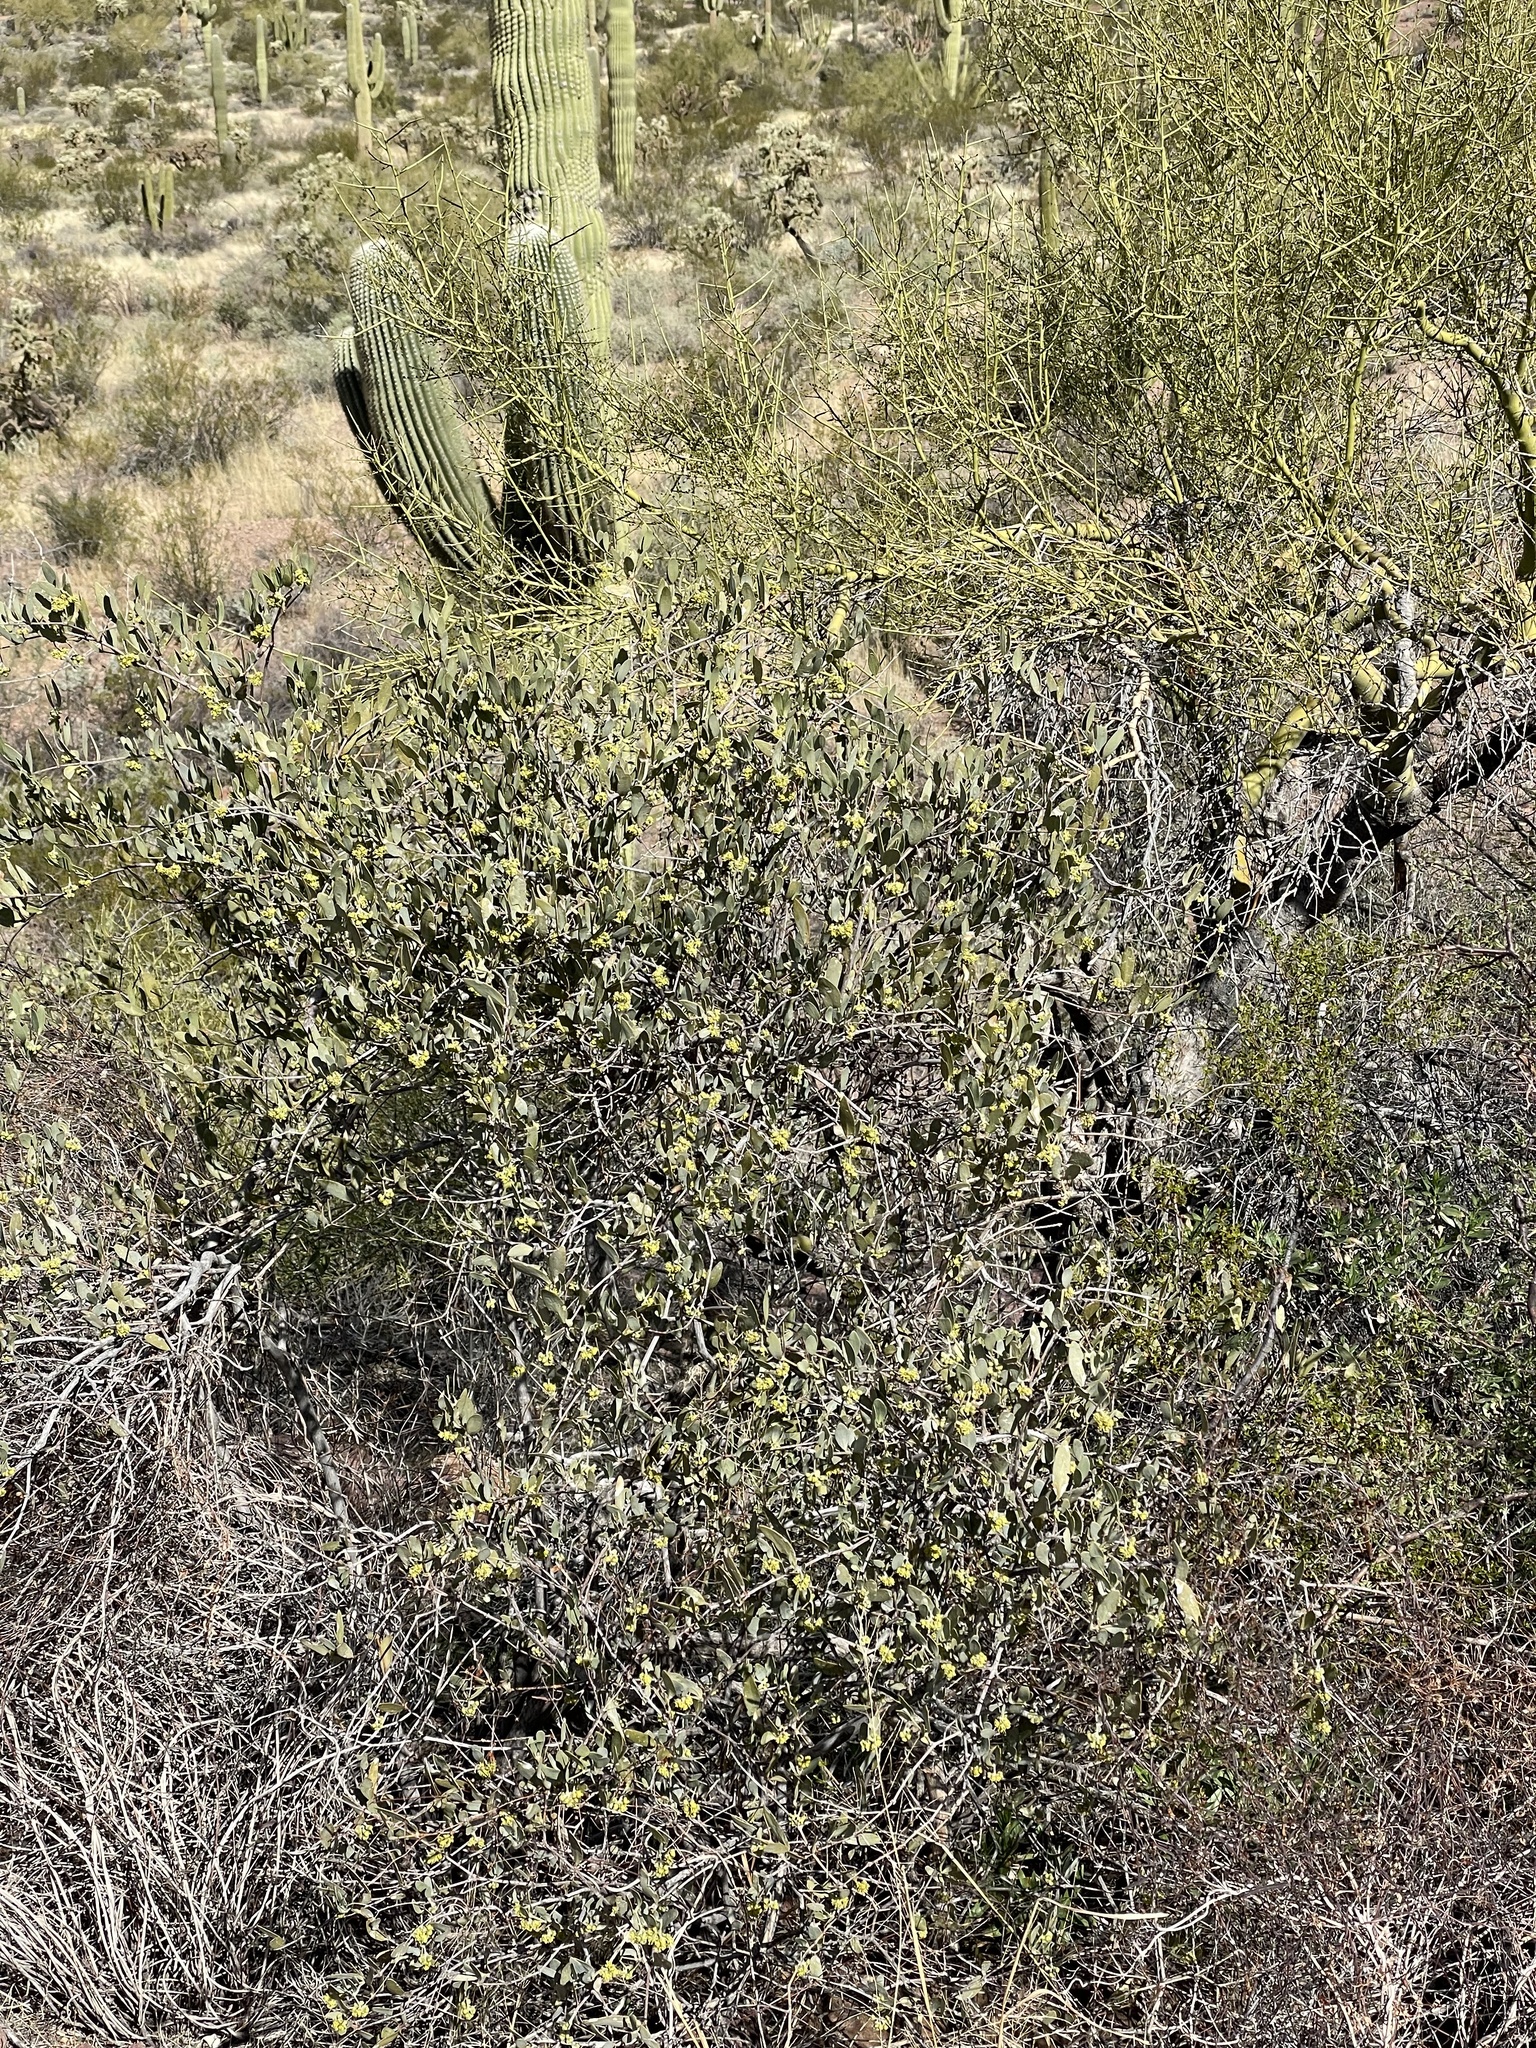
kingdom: Plantae
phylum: Tracheophyta
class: Magnoliopsida
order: Caryophyllales
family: Simmondsiaceae
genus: Simmondsia
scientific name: Simmondsia chinensis
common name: Jojoba
